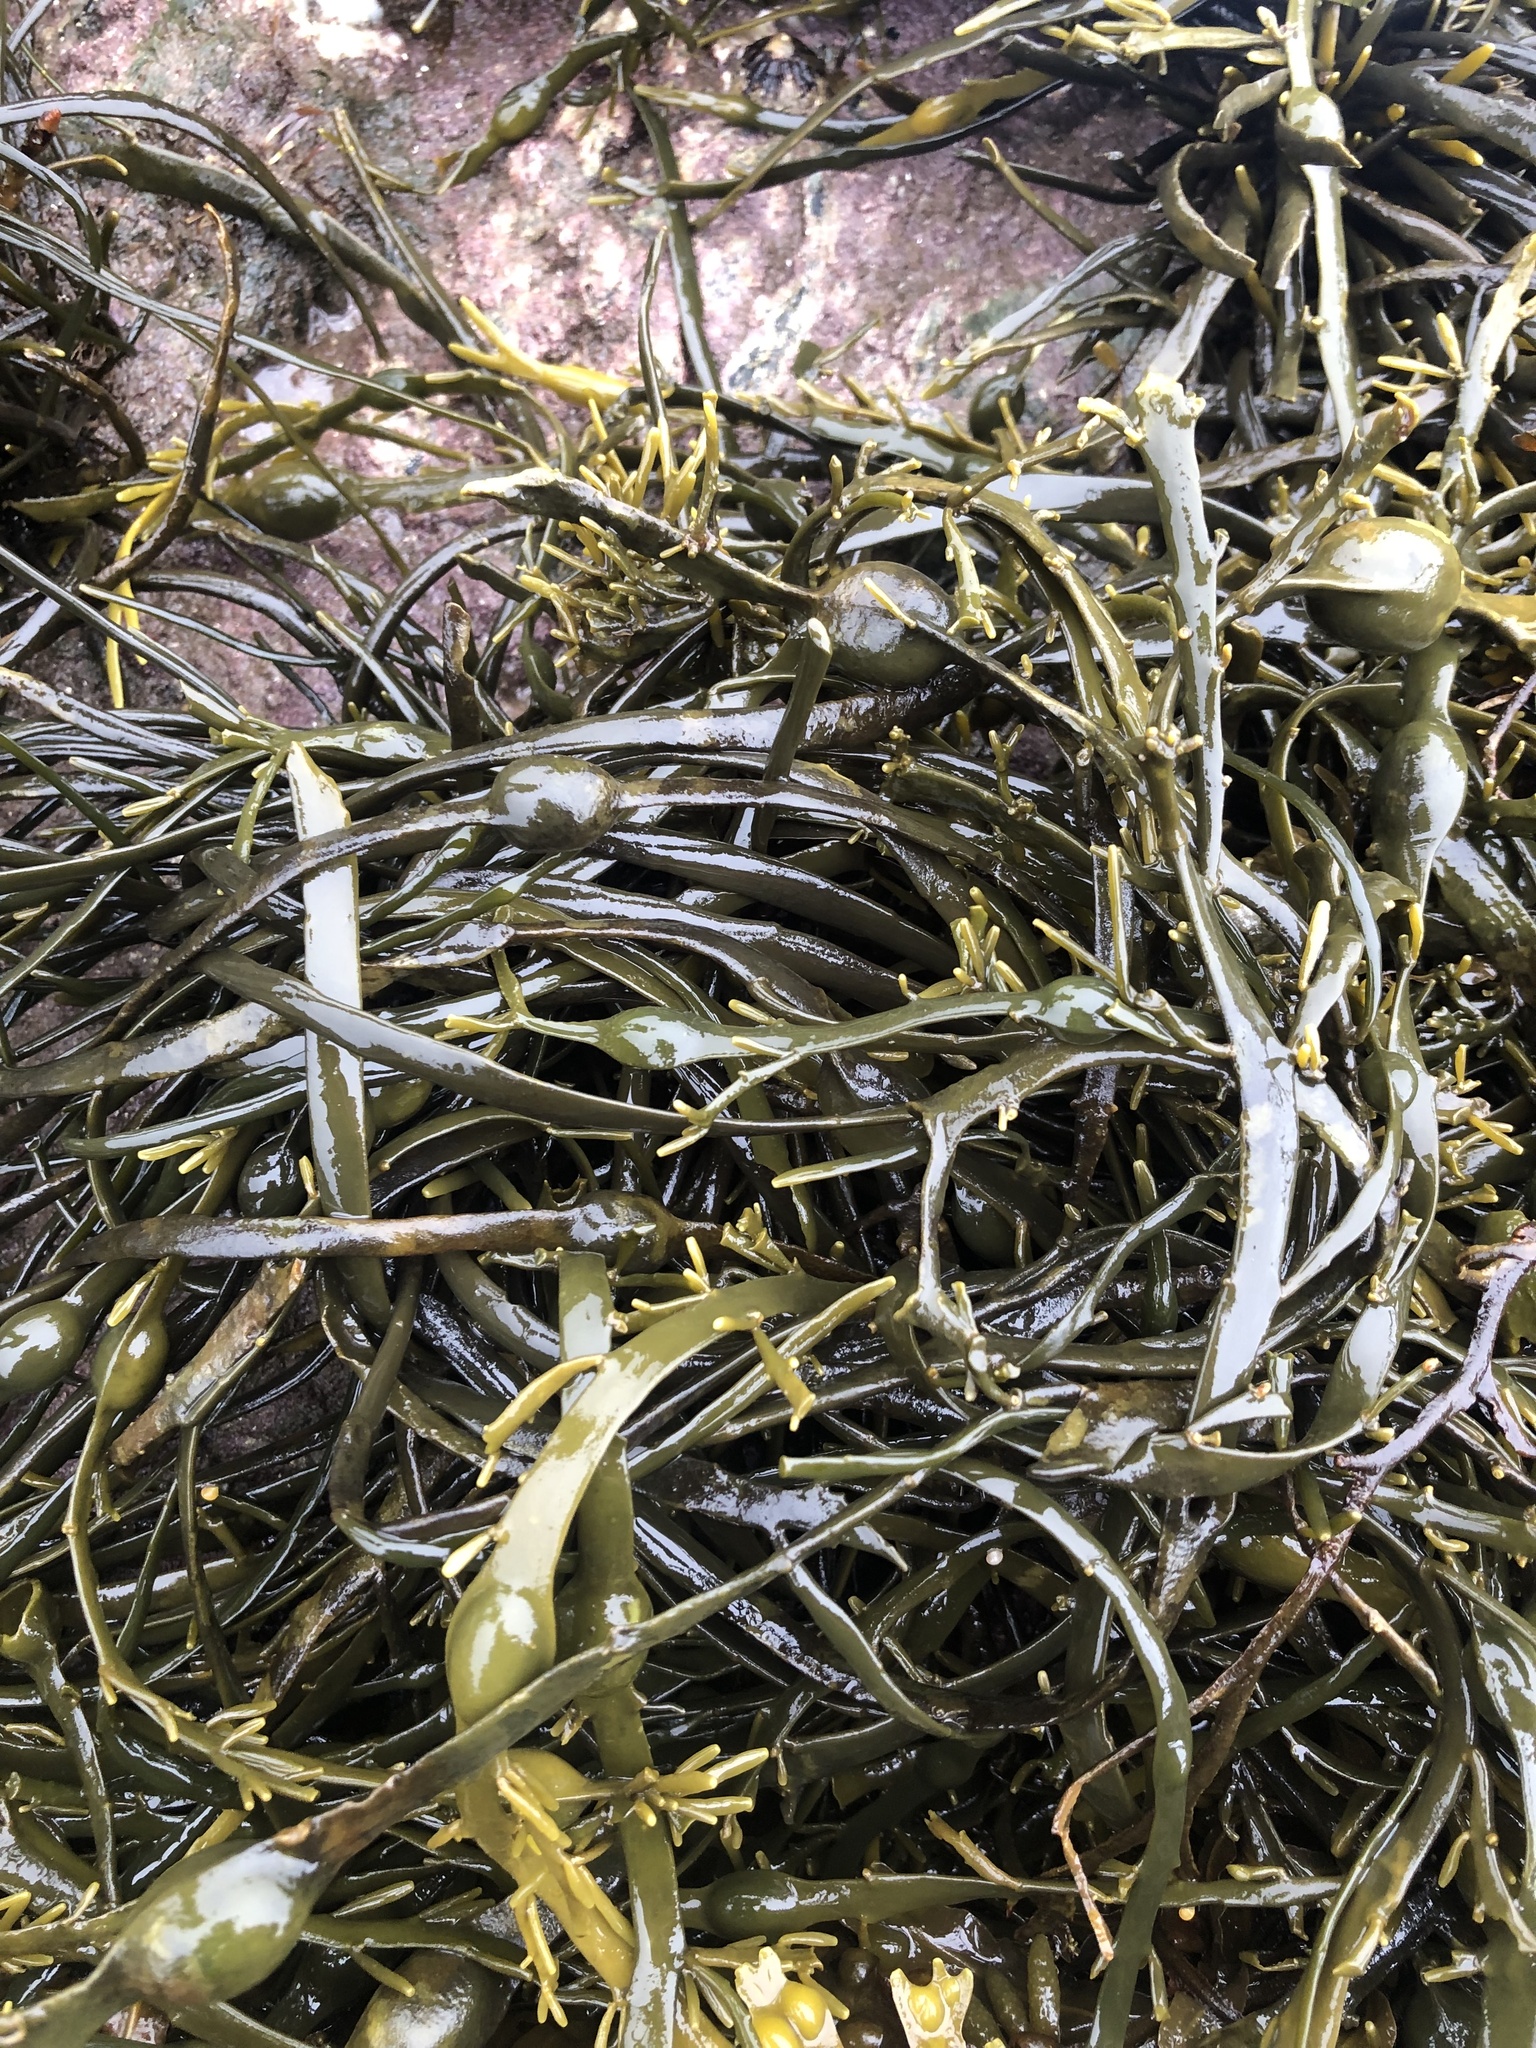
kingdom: Chromista
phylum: Ochrophyta
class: Phaeophyceae
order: Fucales
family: Fucaceae
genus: Ascophyllum
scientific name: Ascophyllum nodosum
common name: Knotted wrack
